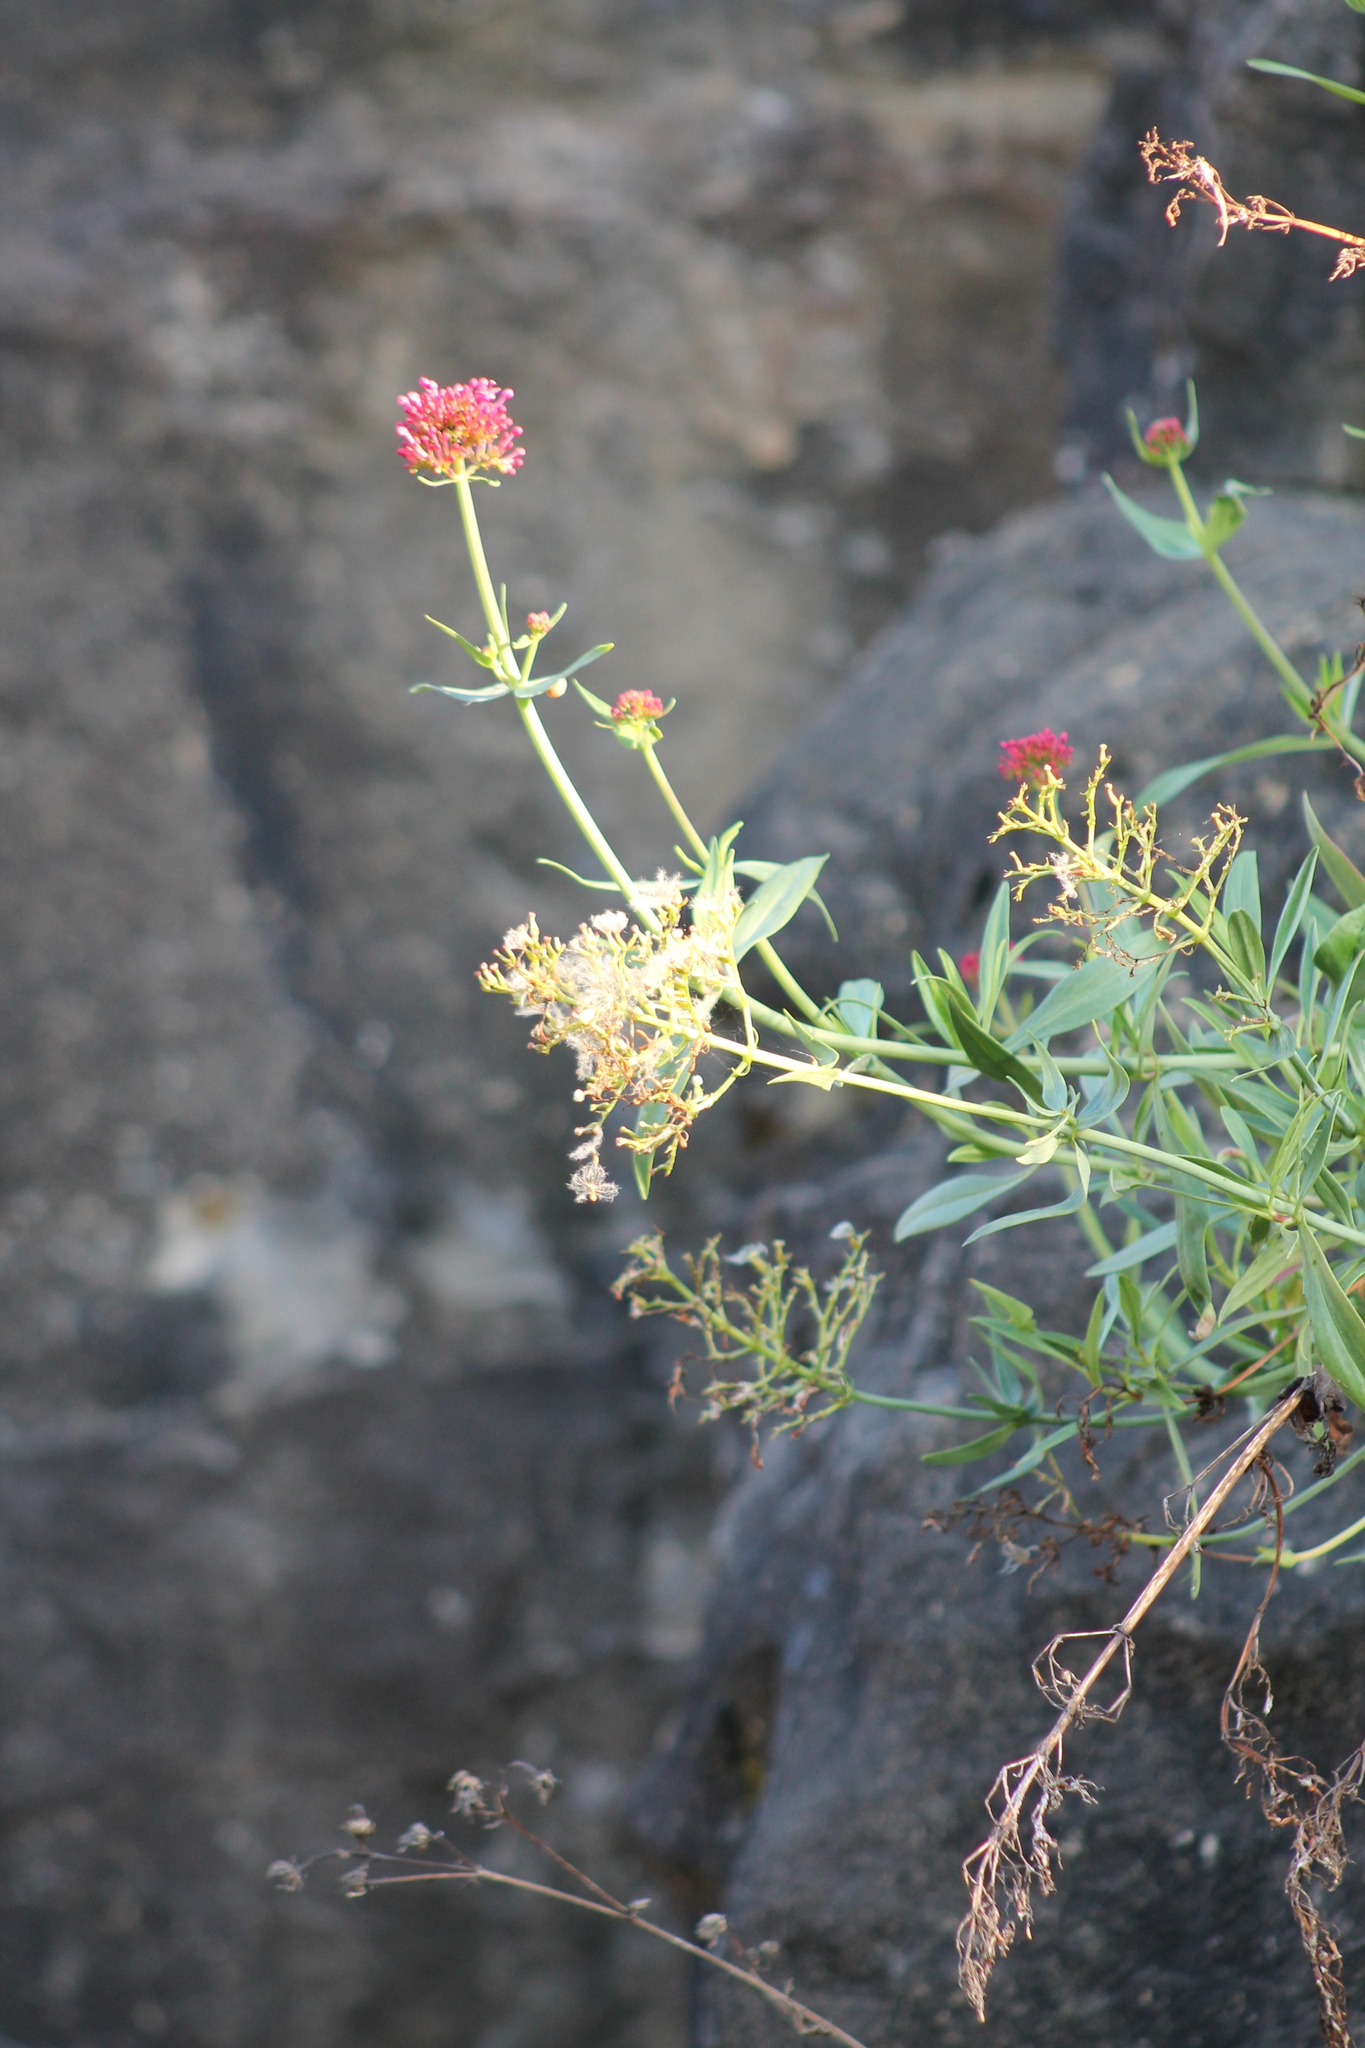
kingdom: Plantae
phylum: Tracheophyta
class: Magnoliopsida
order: Dipsacales
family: Caprifoliaceae
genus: Centranthus
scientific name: Centranthus ruber
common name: Red valerian
